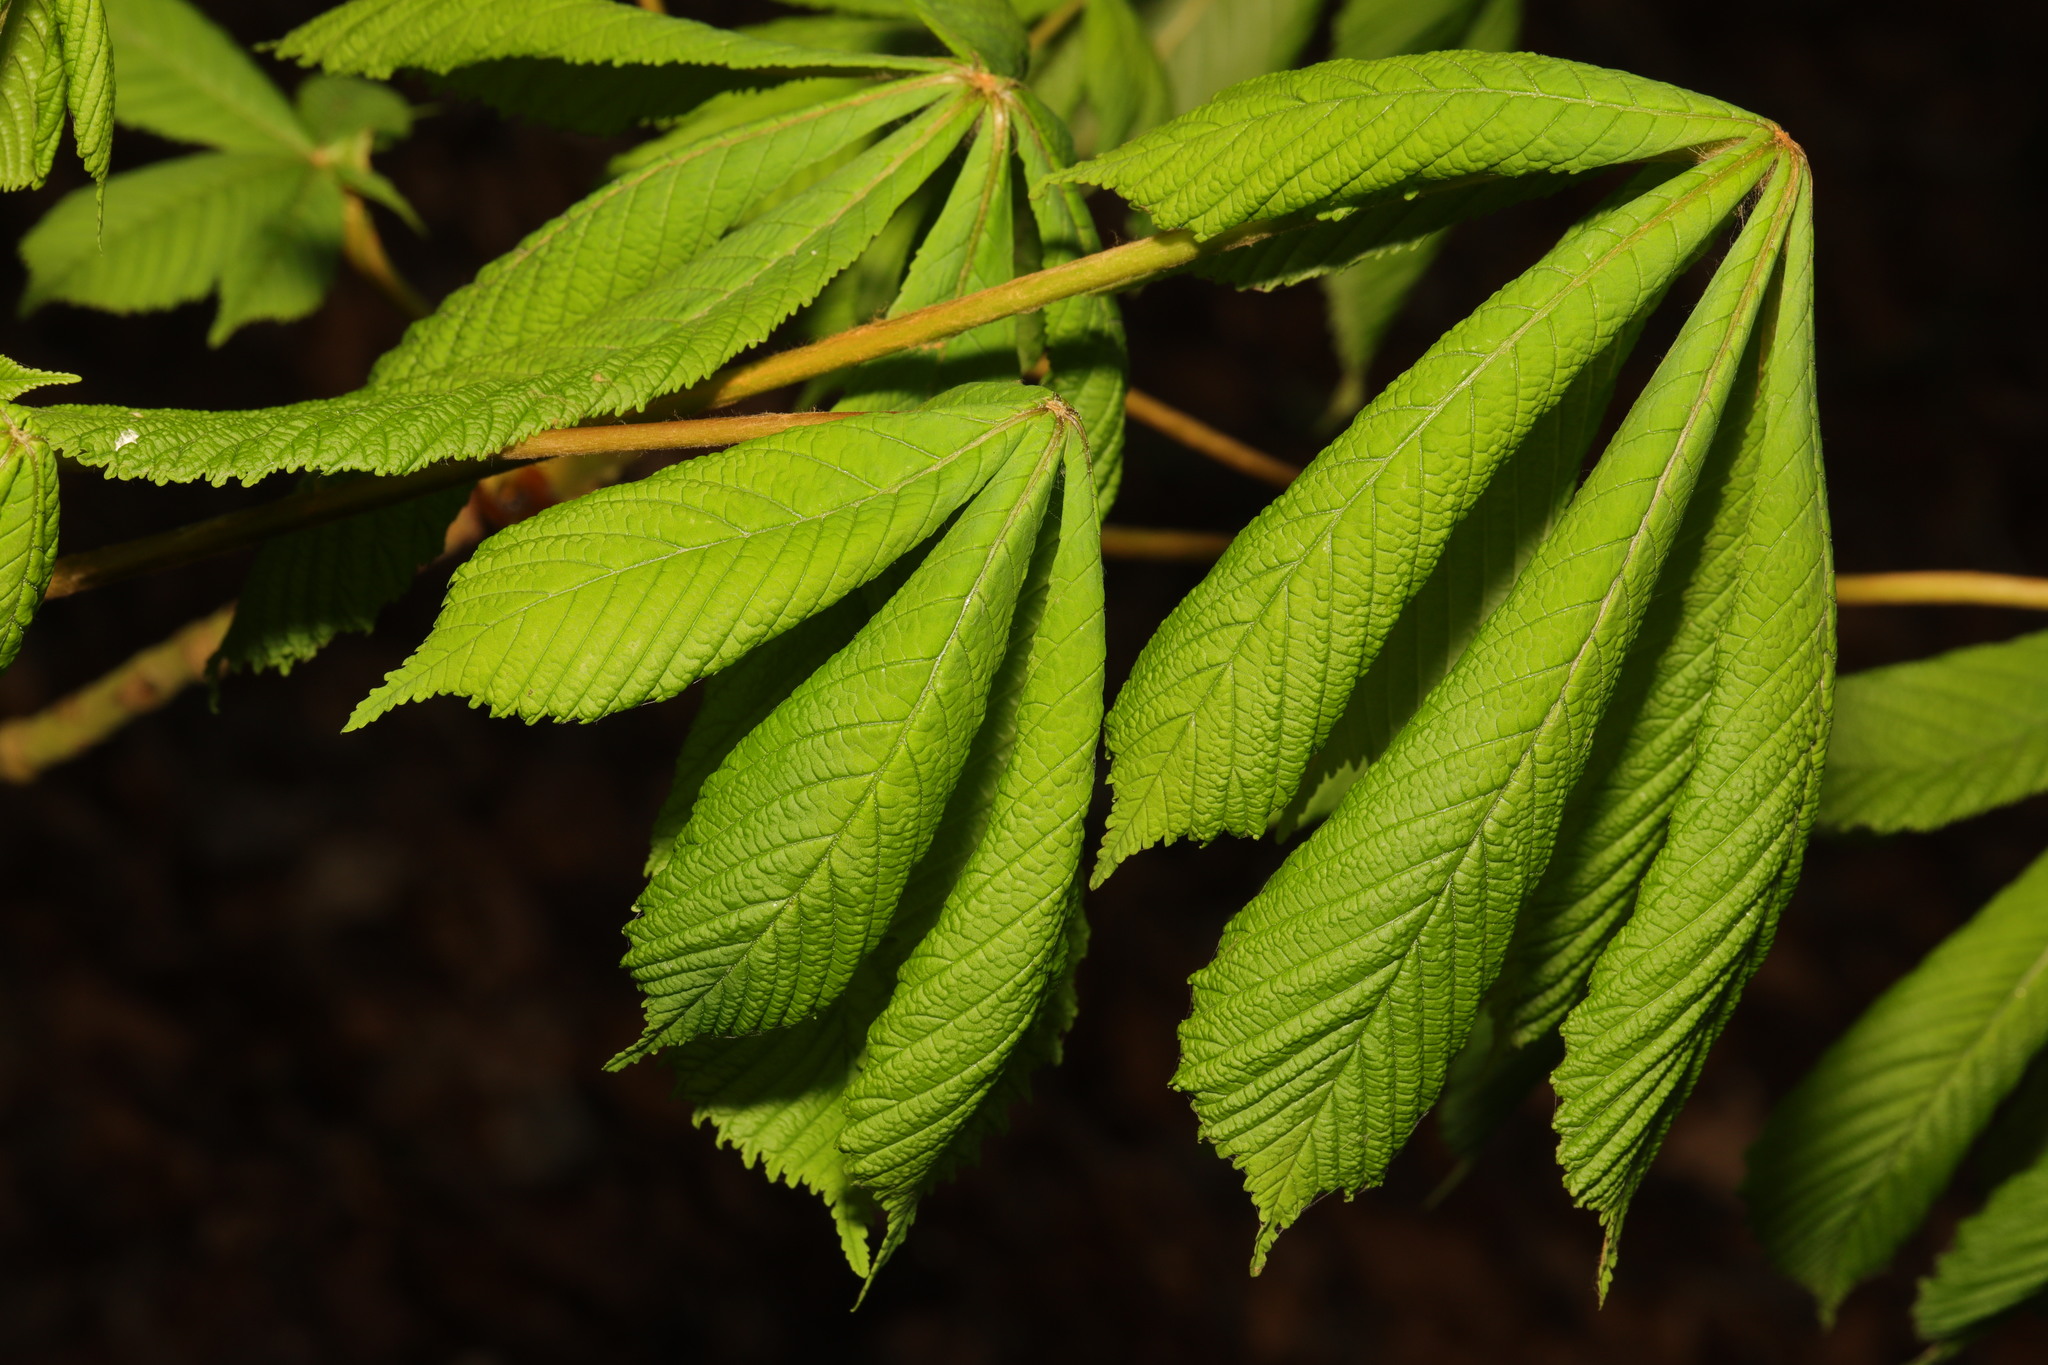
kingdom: Plantae
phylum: Tracheophyta
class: Magnoliopsida
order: Sapindales
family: Sapindaceae
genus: Aesculus
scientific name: Aesculus hippocastanum
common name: Horse-chestnut
